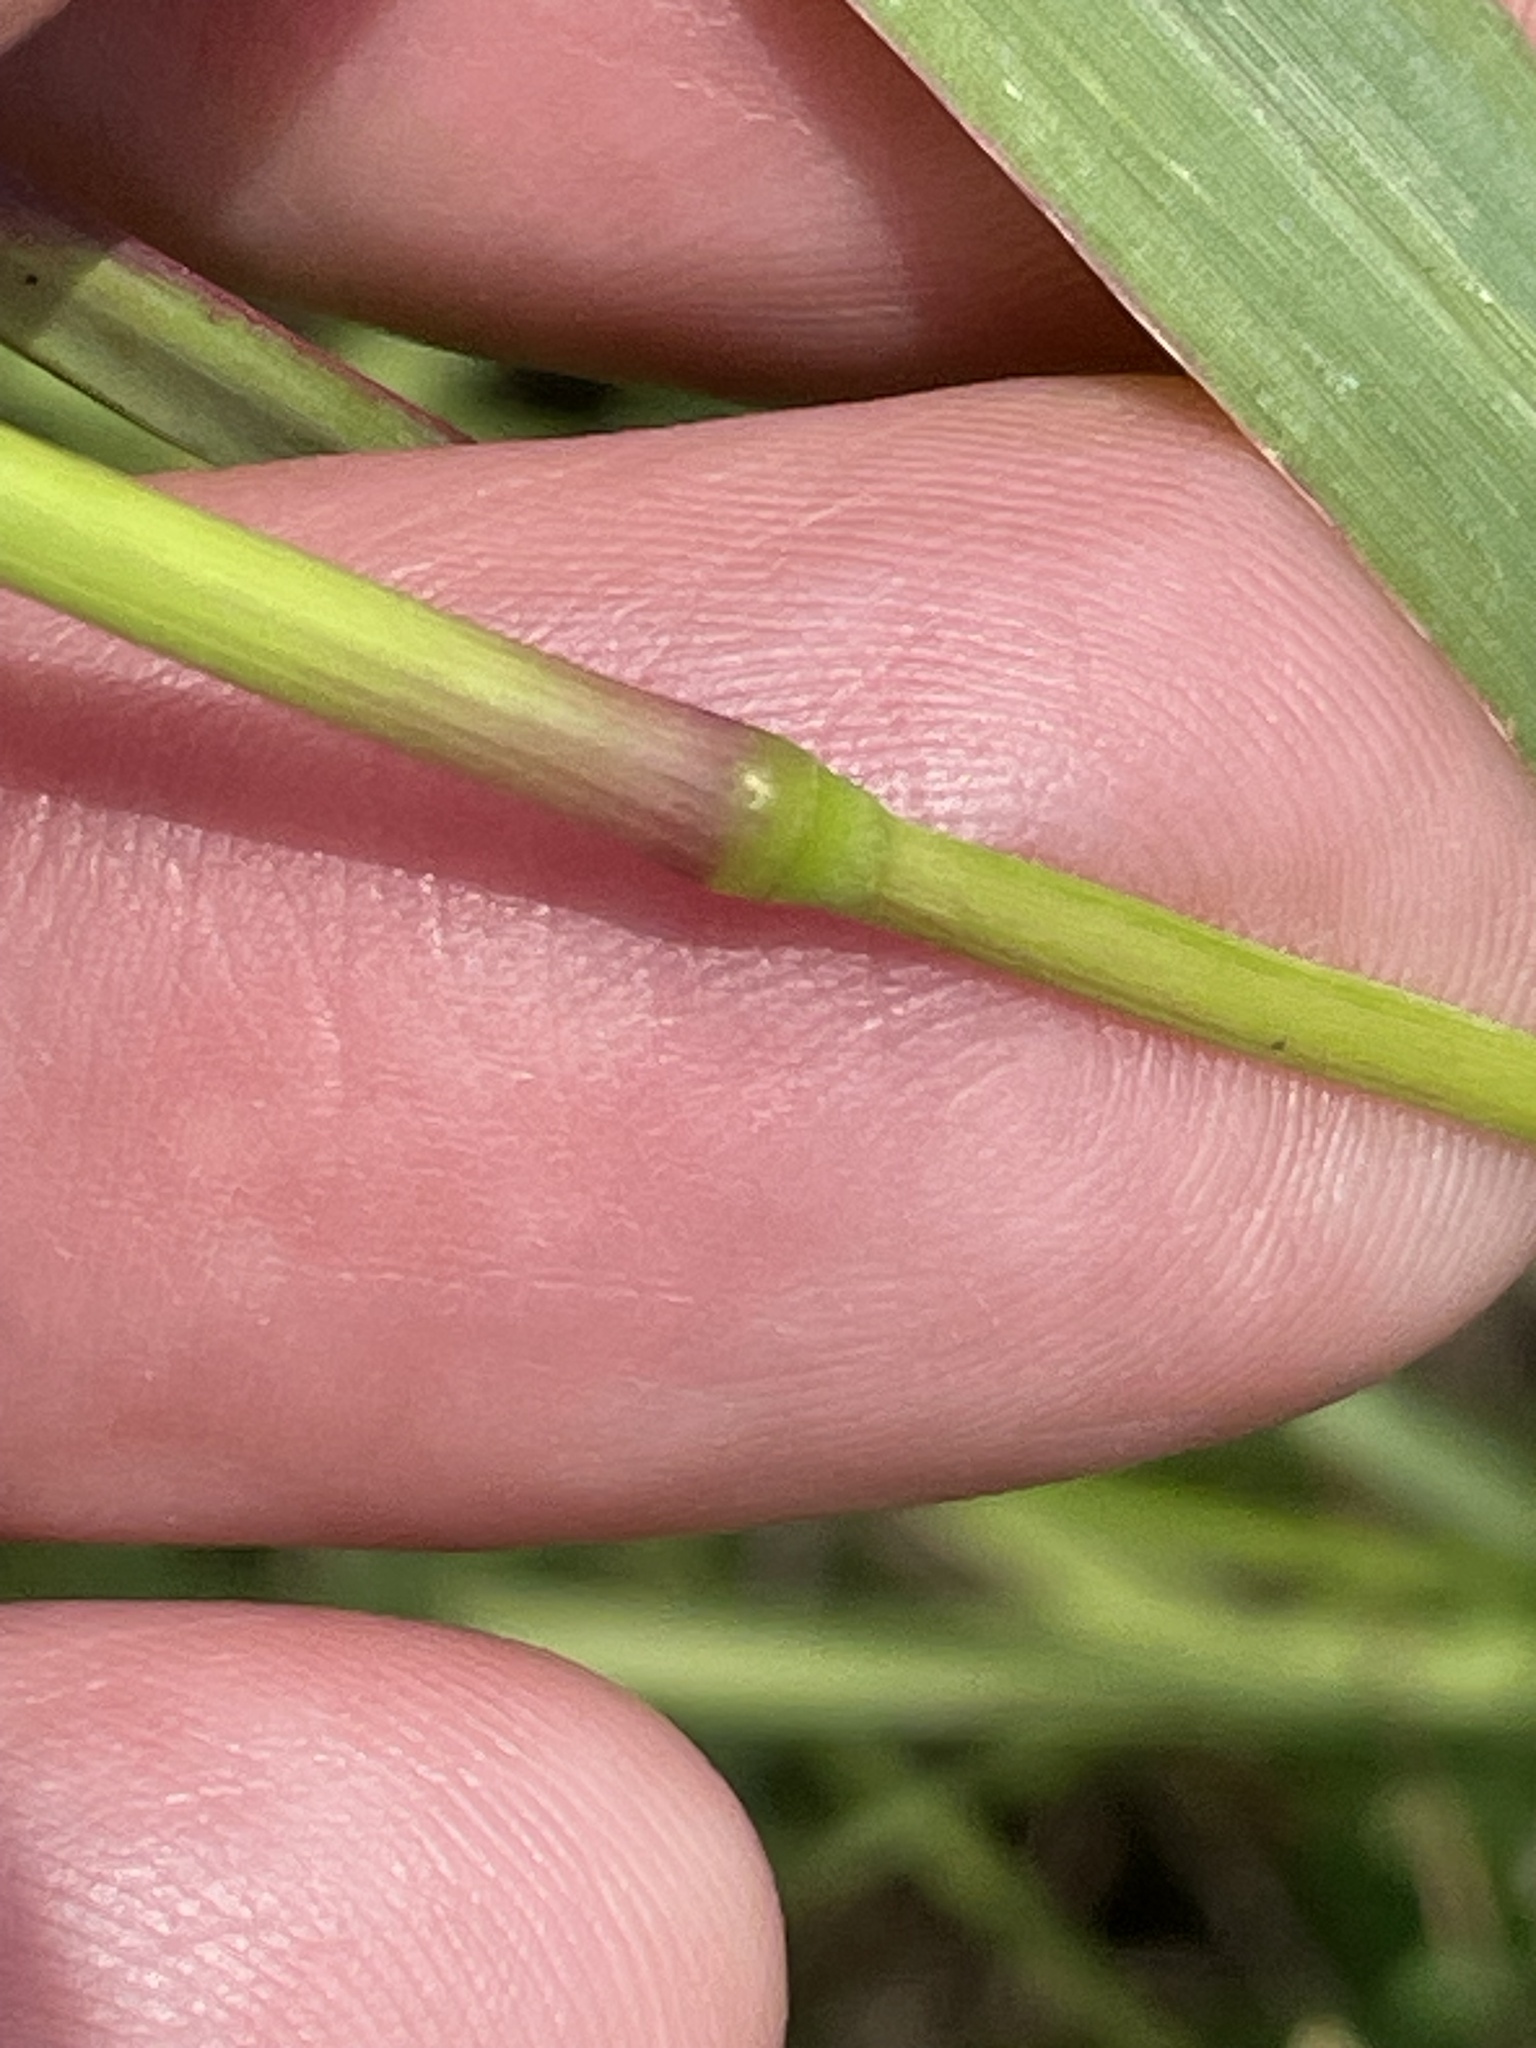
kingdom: Plantae
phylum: Tracheophyta
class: Liliopsida
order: Poales
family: Poaceae
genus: Setaria
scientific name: Setaria parviflora
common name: Knotroot bristle-grass
